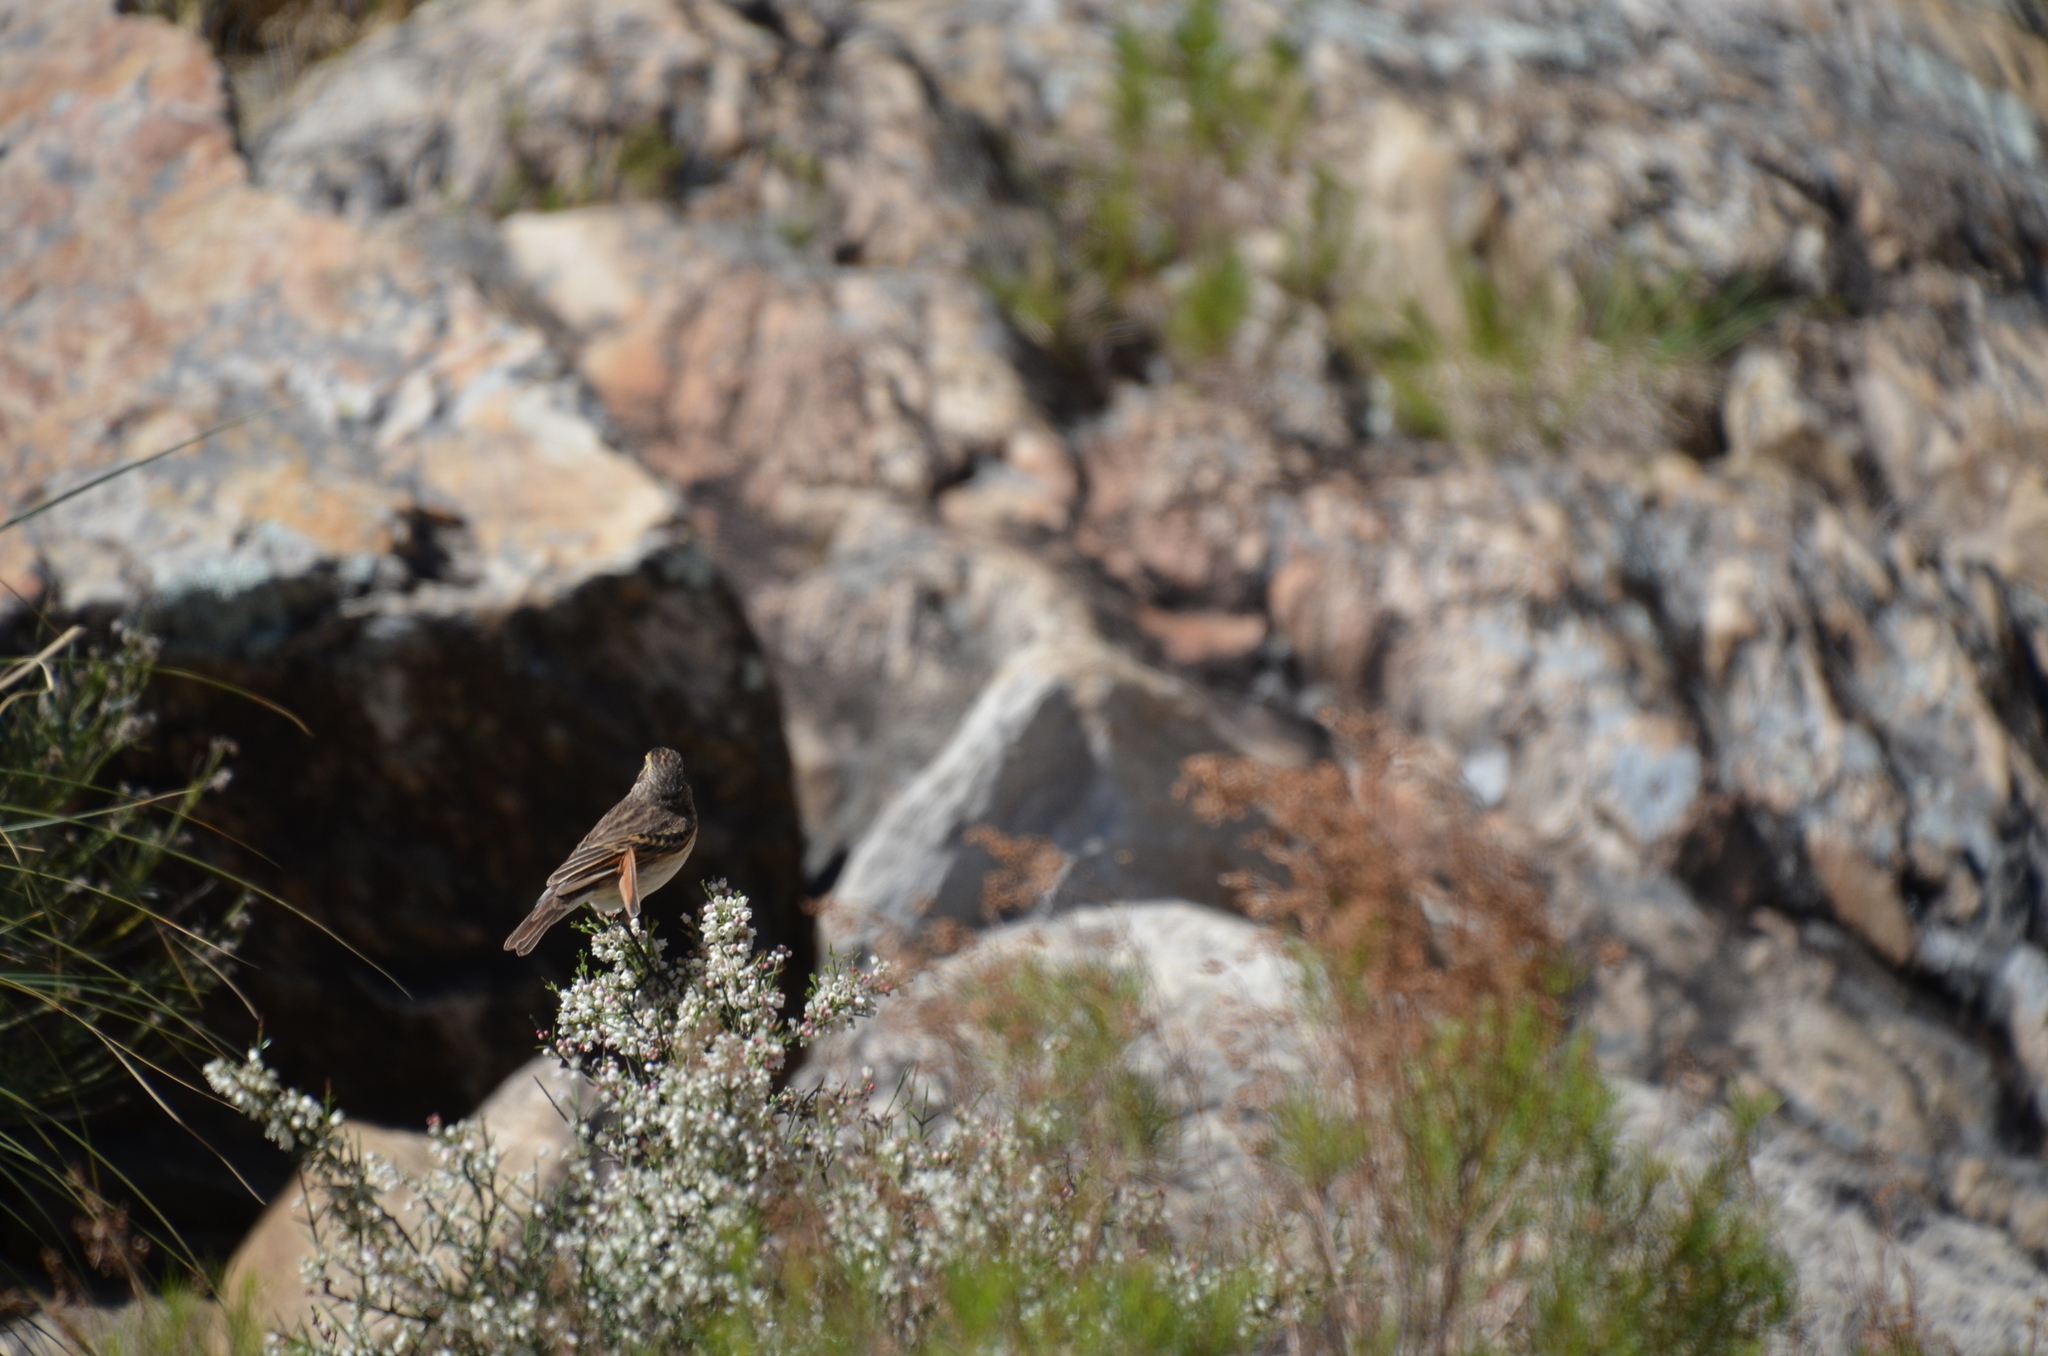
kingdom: Animalia
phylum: Chordata
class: Aves
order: Passeriformes
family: Tyrannidae
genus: Hymenops
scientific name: Hymenops perspicillatus
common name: Spectacled tyrant
